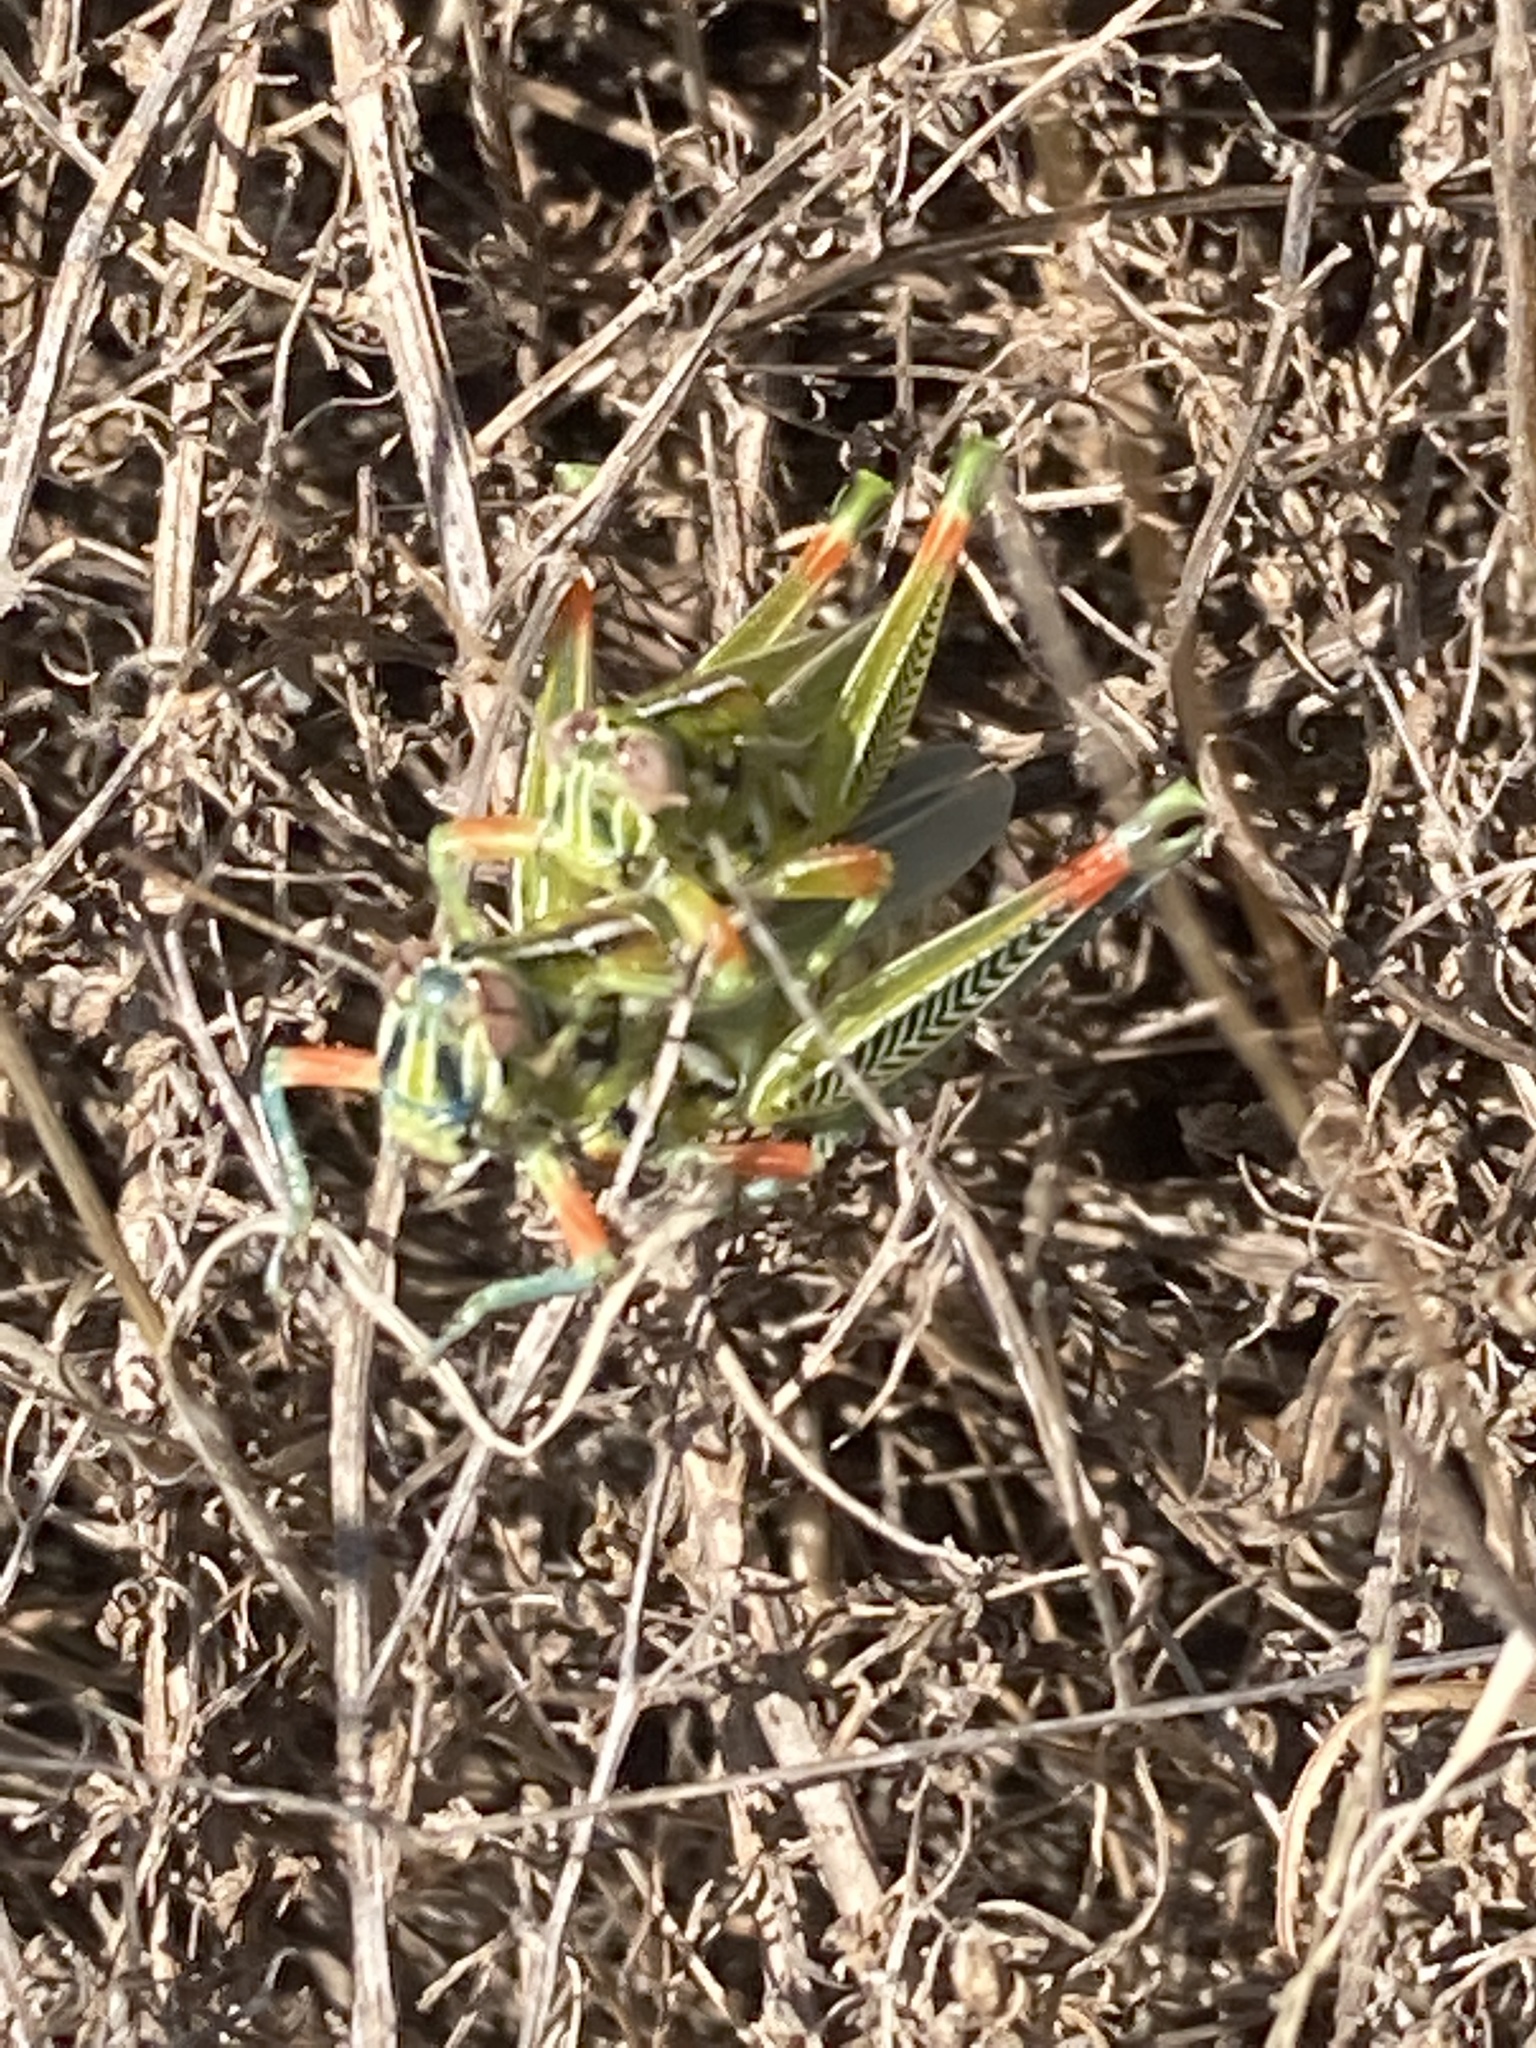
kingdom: Animalia
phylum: Arthropoda
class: Insecta
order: Orthoptera
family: Acrididae
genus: Hesperotettix
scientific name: Hesperotettix viridis
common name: Meadow purple-striped grasshopper
